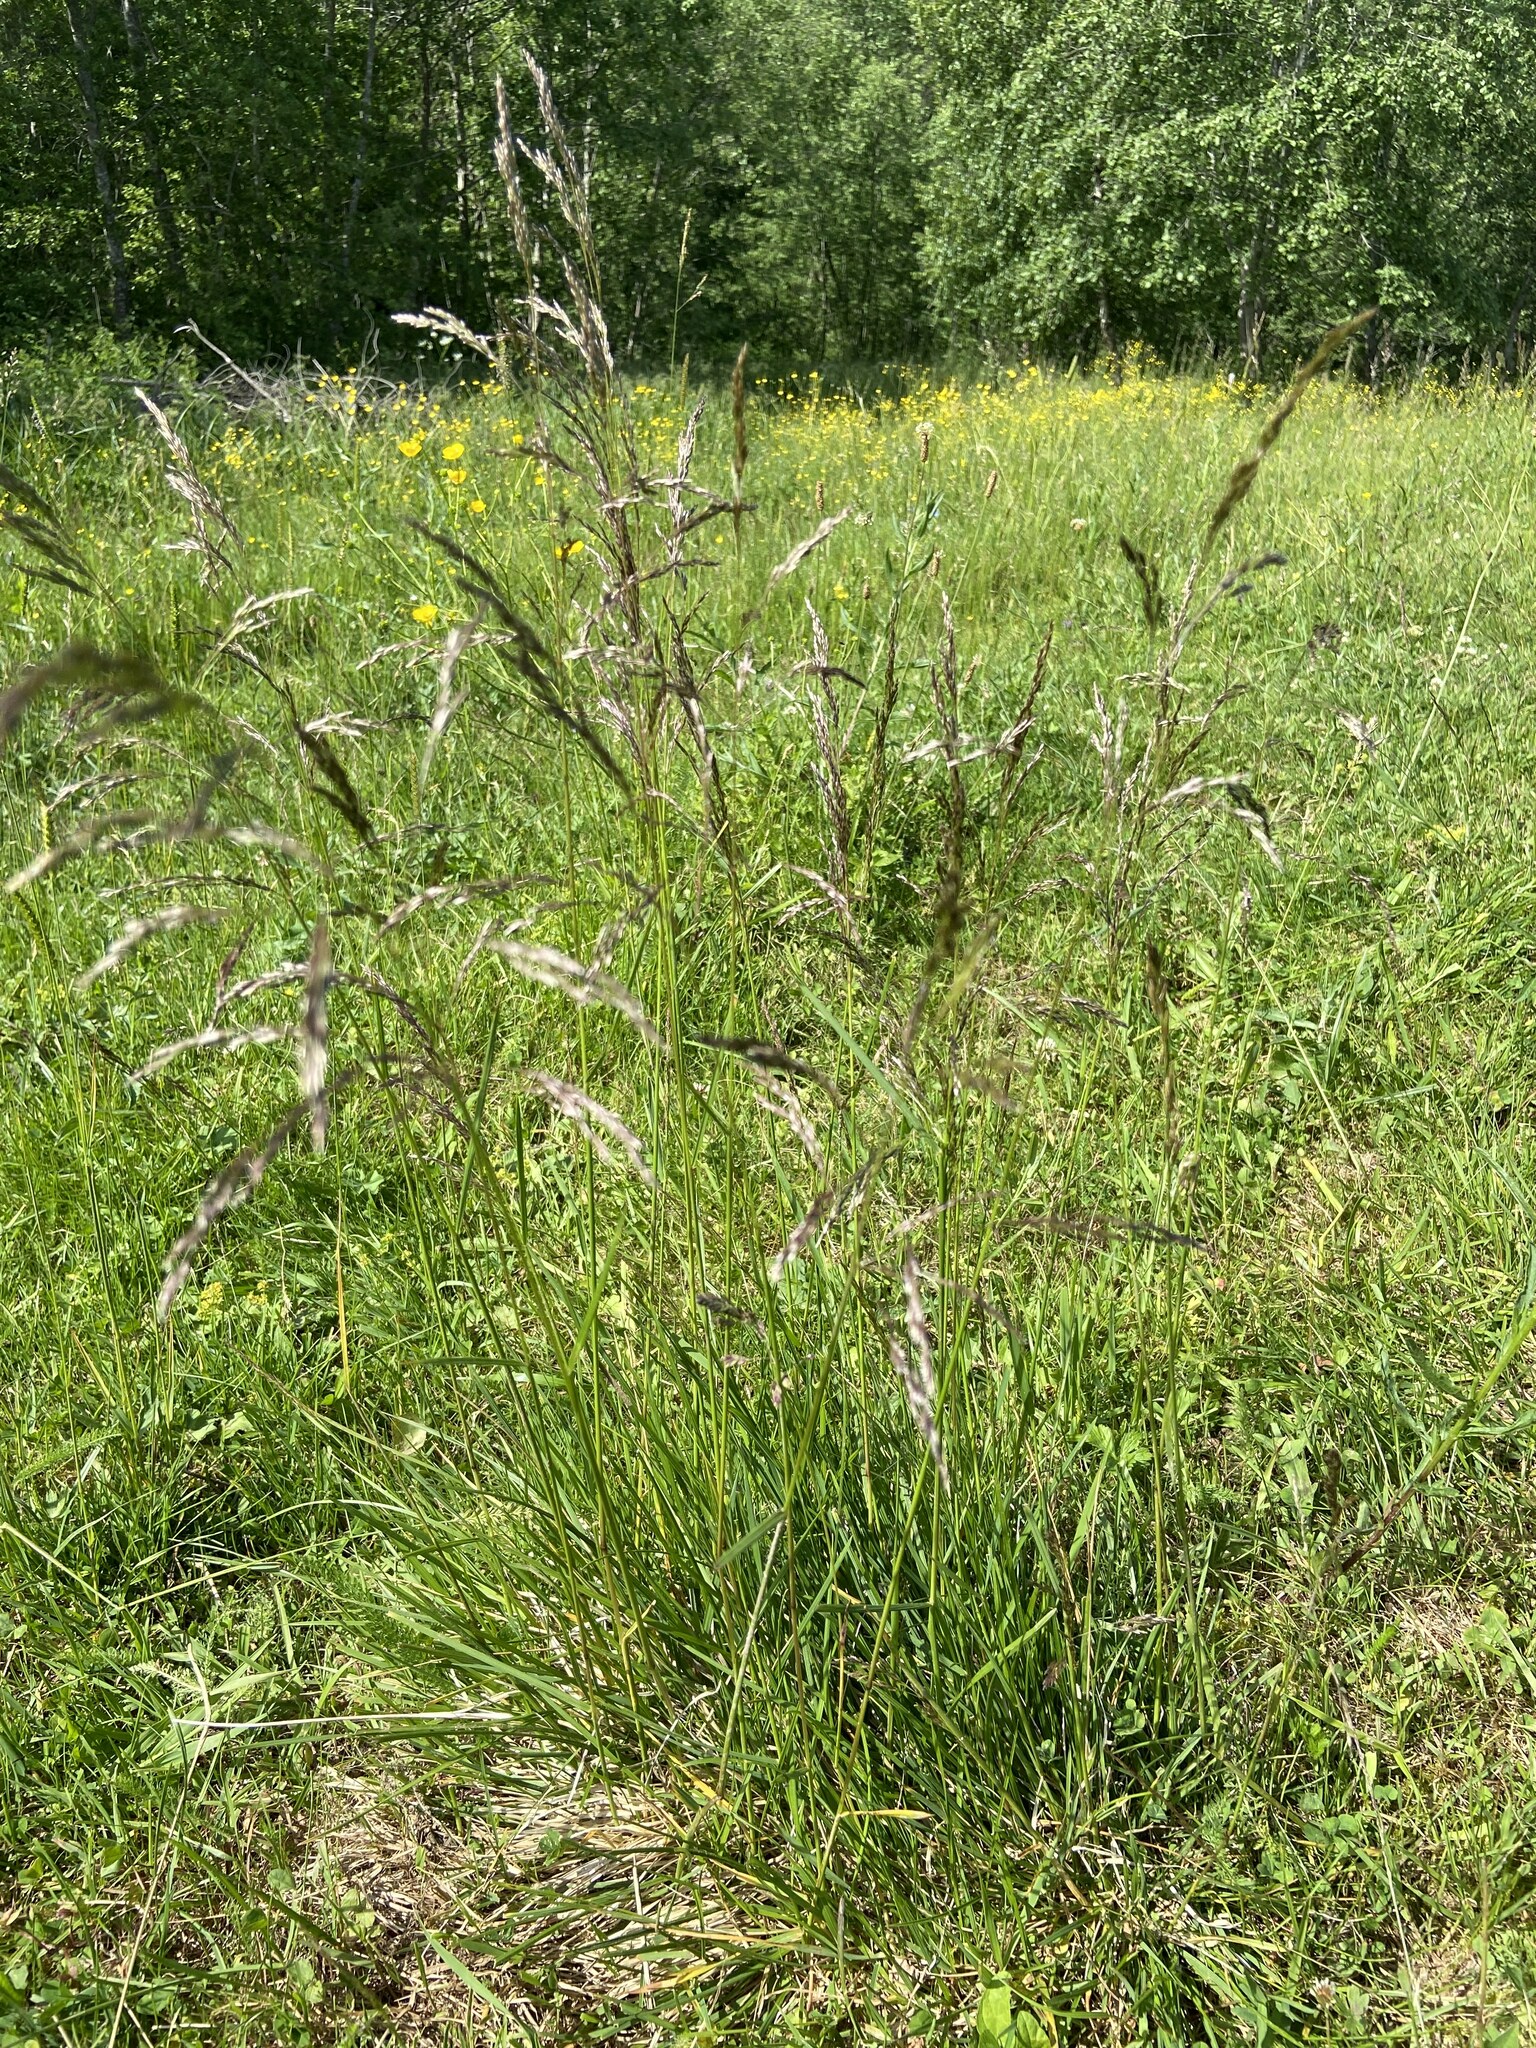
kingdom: Plantae
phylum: Tracheophyta
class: Liliopsida
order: Poales
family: Poaceae
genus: Deschampsia
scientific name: Deschampsia cespitosa
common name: Tufted hair-grass
